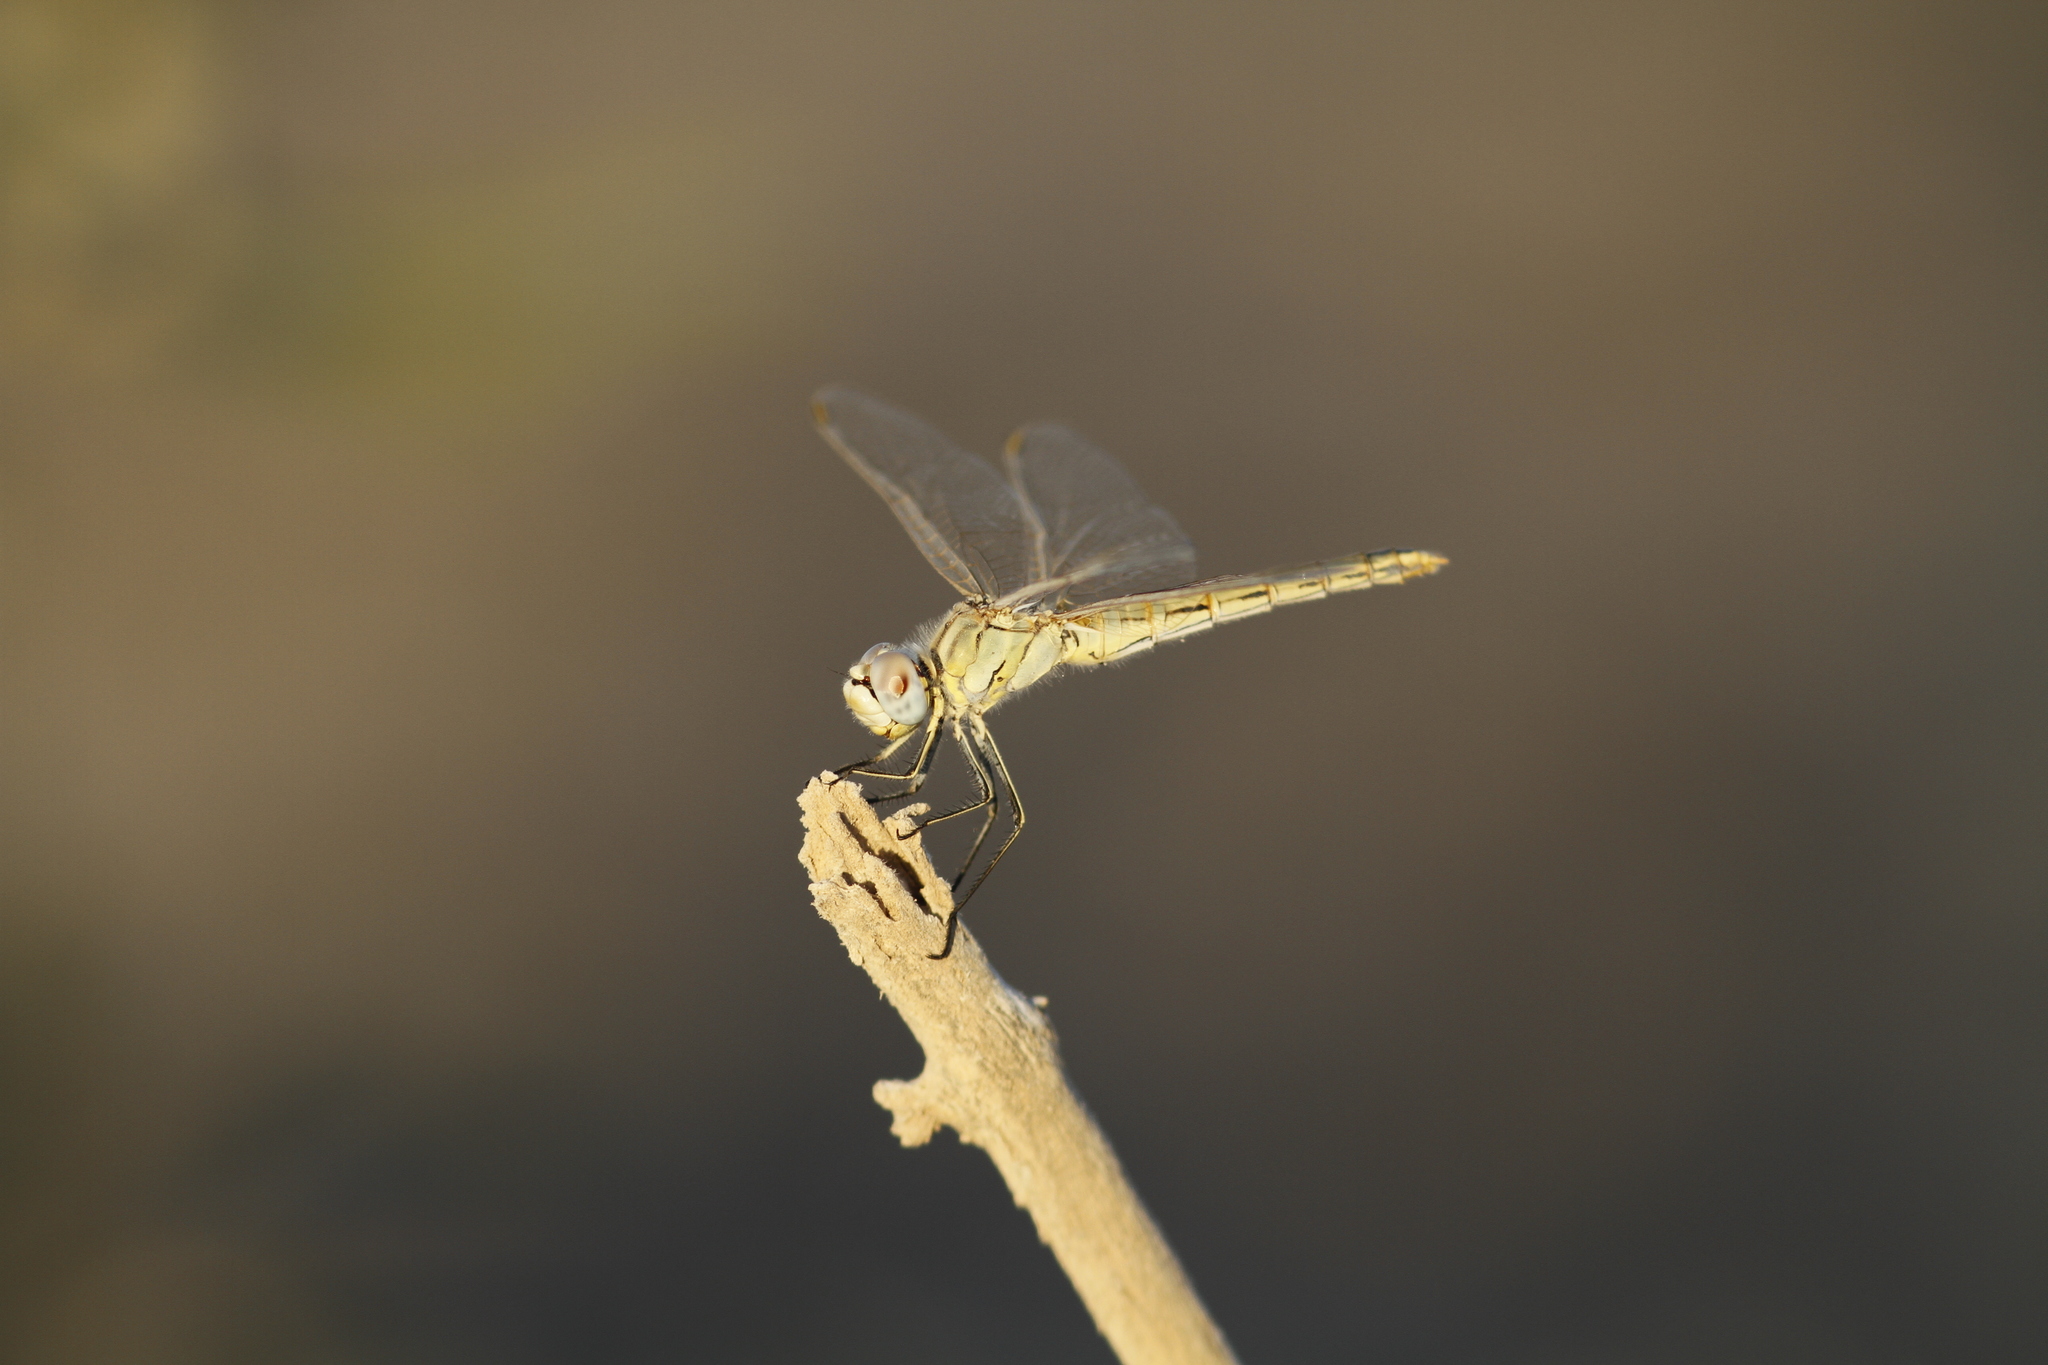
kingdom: Animalia
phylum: Arthropoda
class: Insecta
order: Odonata
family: Libellulidae
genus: Sympetrum
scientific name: Sympetrum fonscolombii
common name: Red-veined darter
